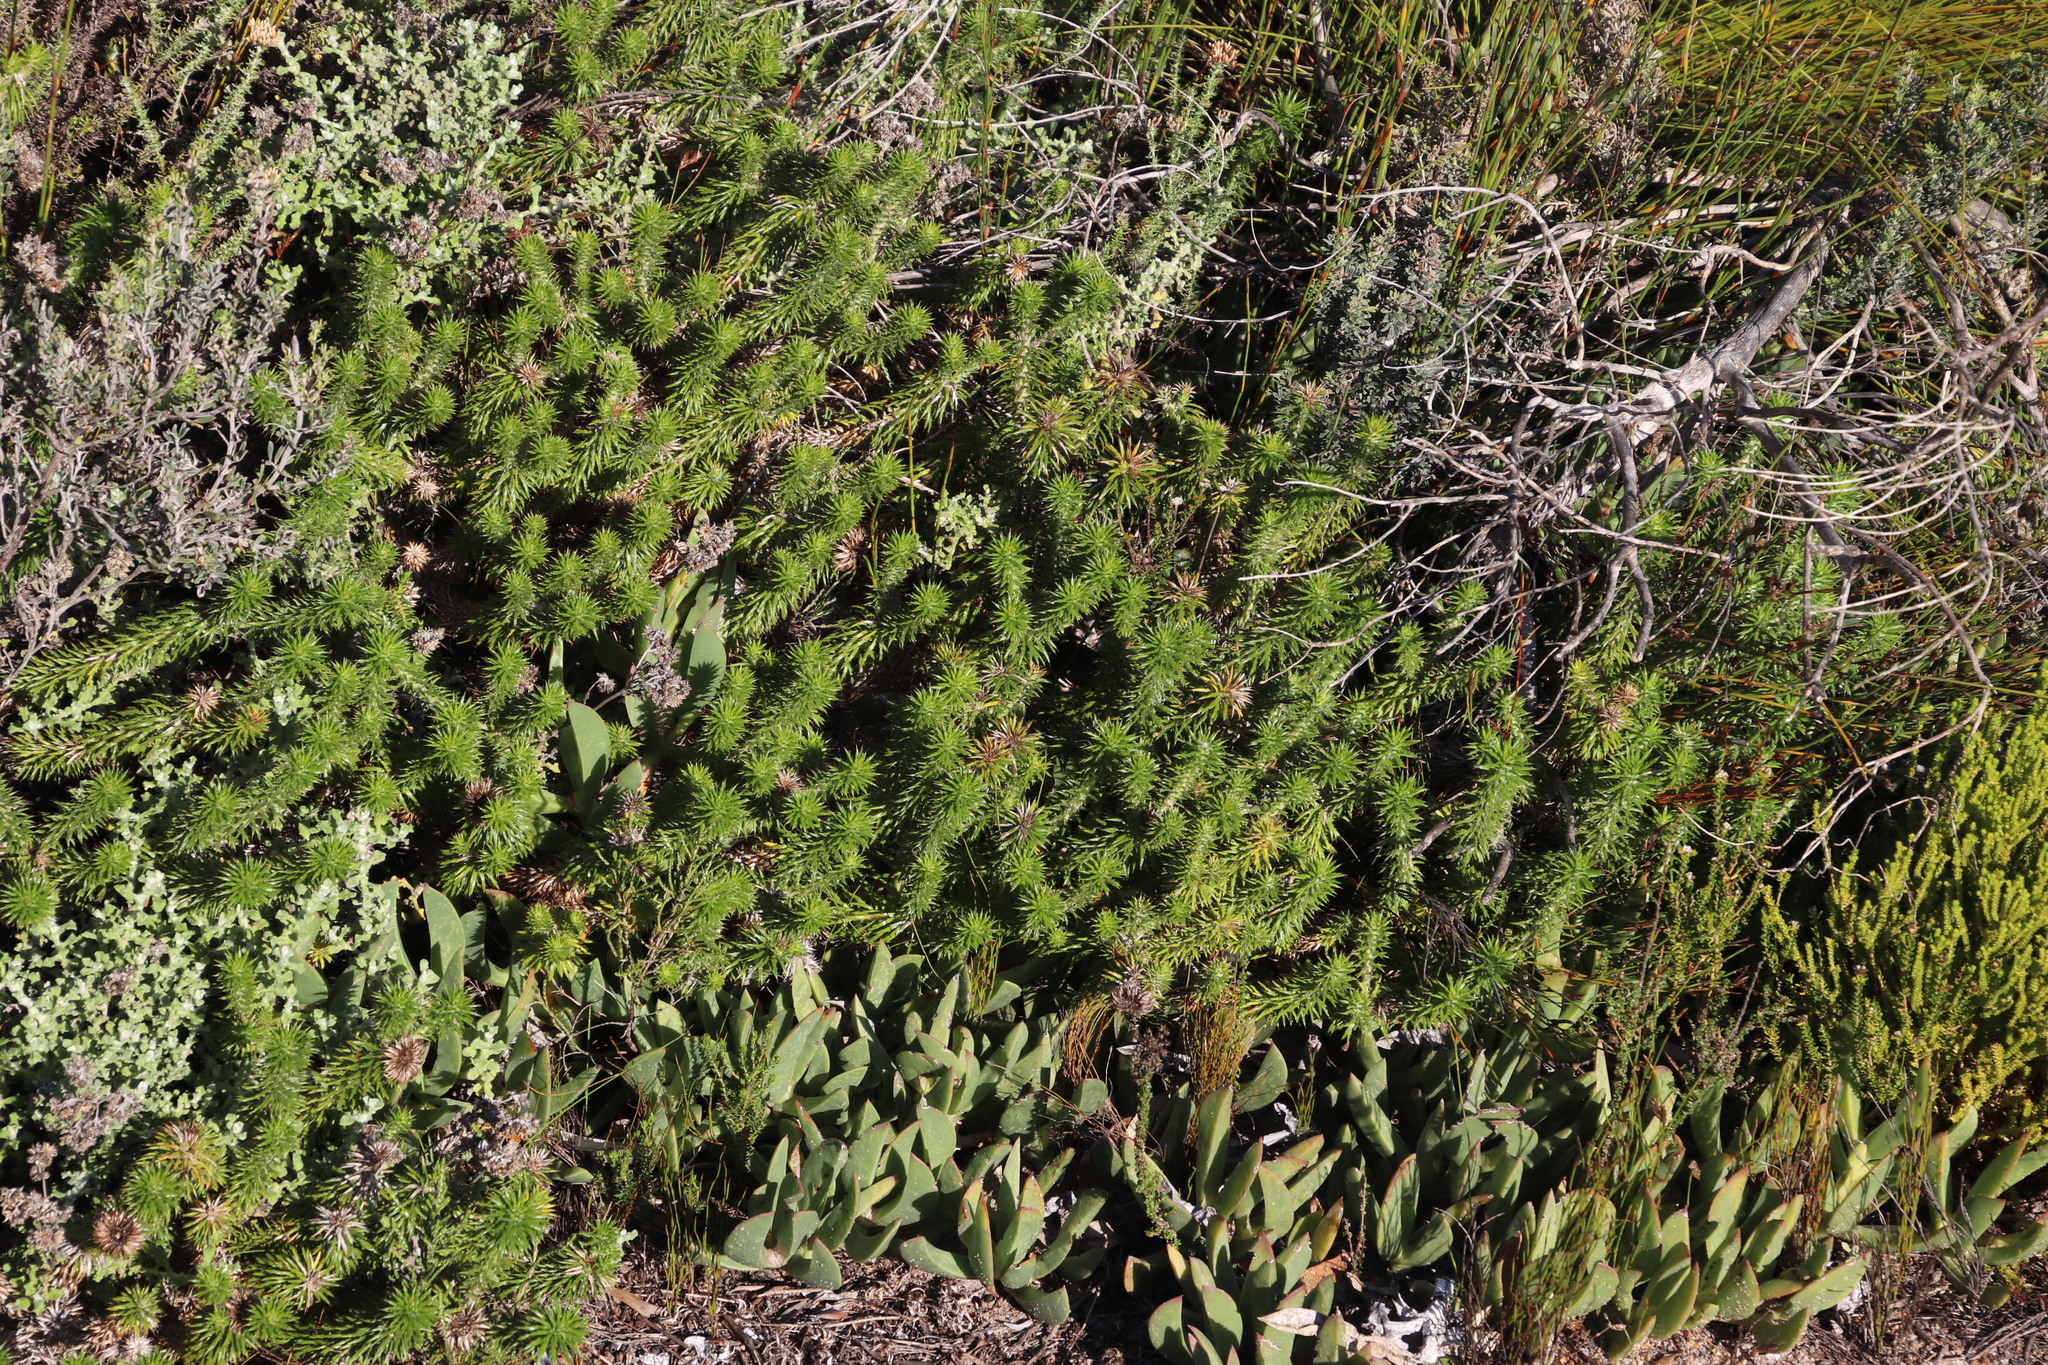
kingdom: Plantae
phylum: Tracheophyta
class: Magnoliopsida
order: Asterales
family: Asteraceae
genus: Cullumia
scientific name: Cullumia squarrosa
